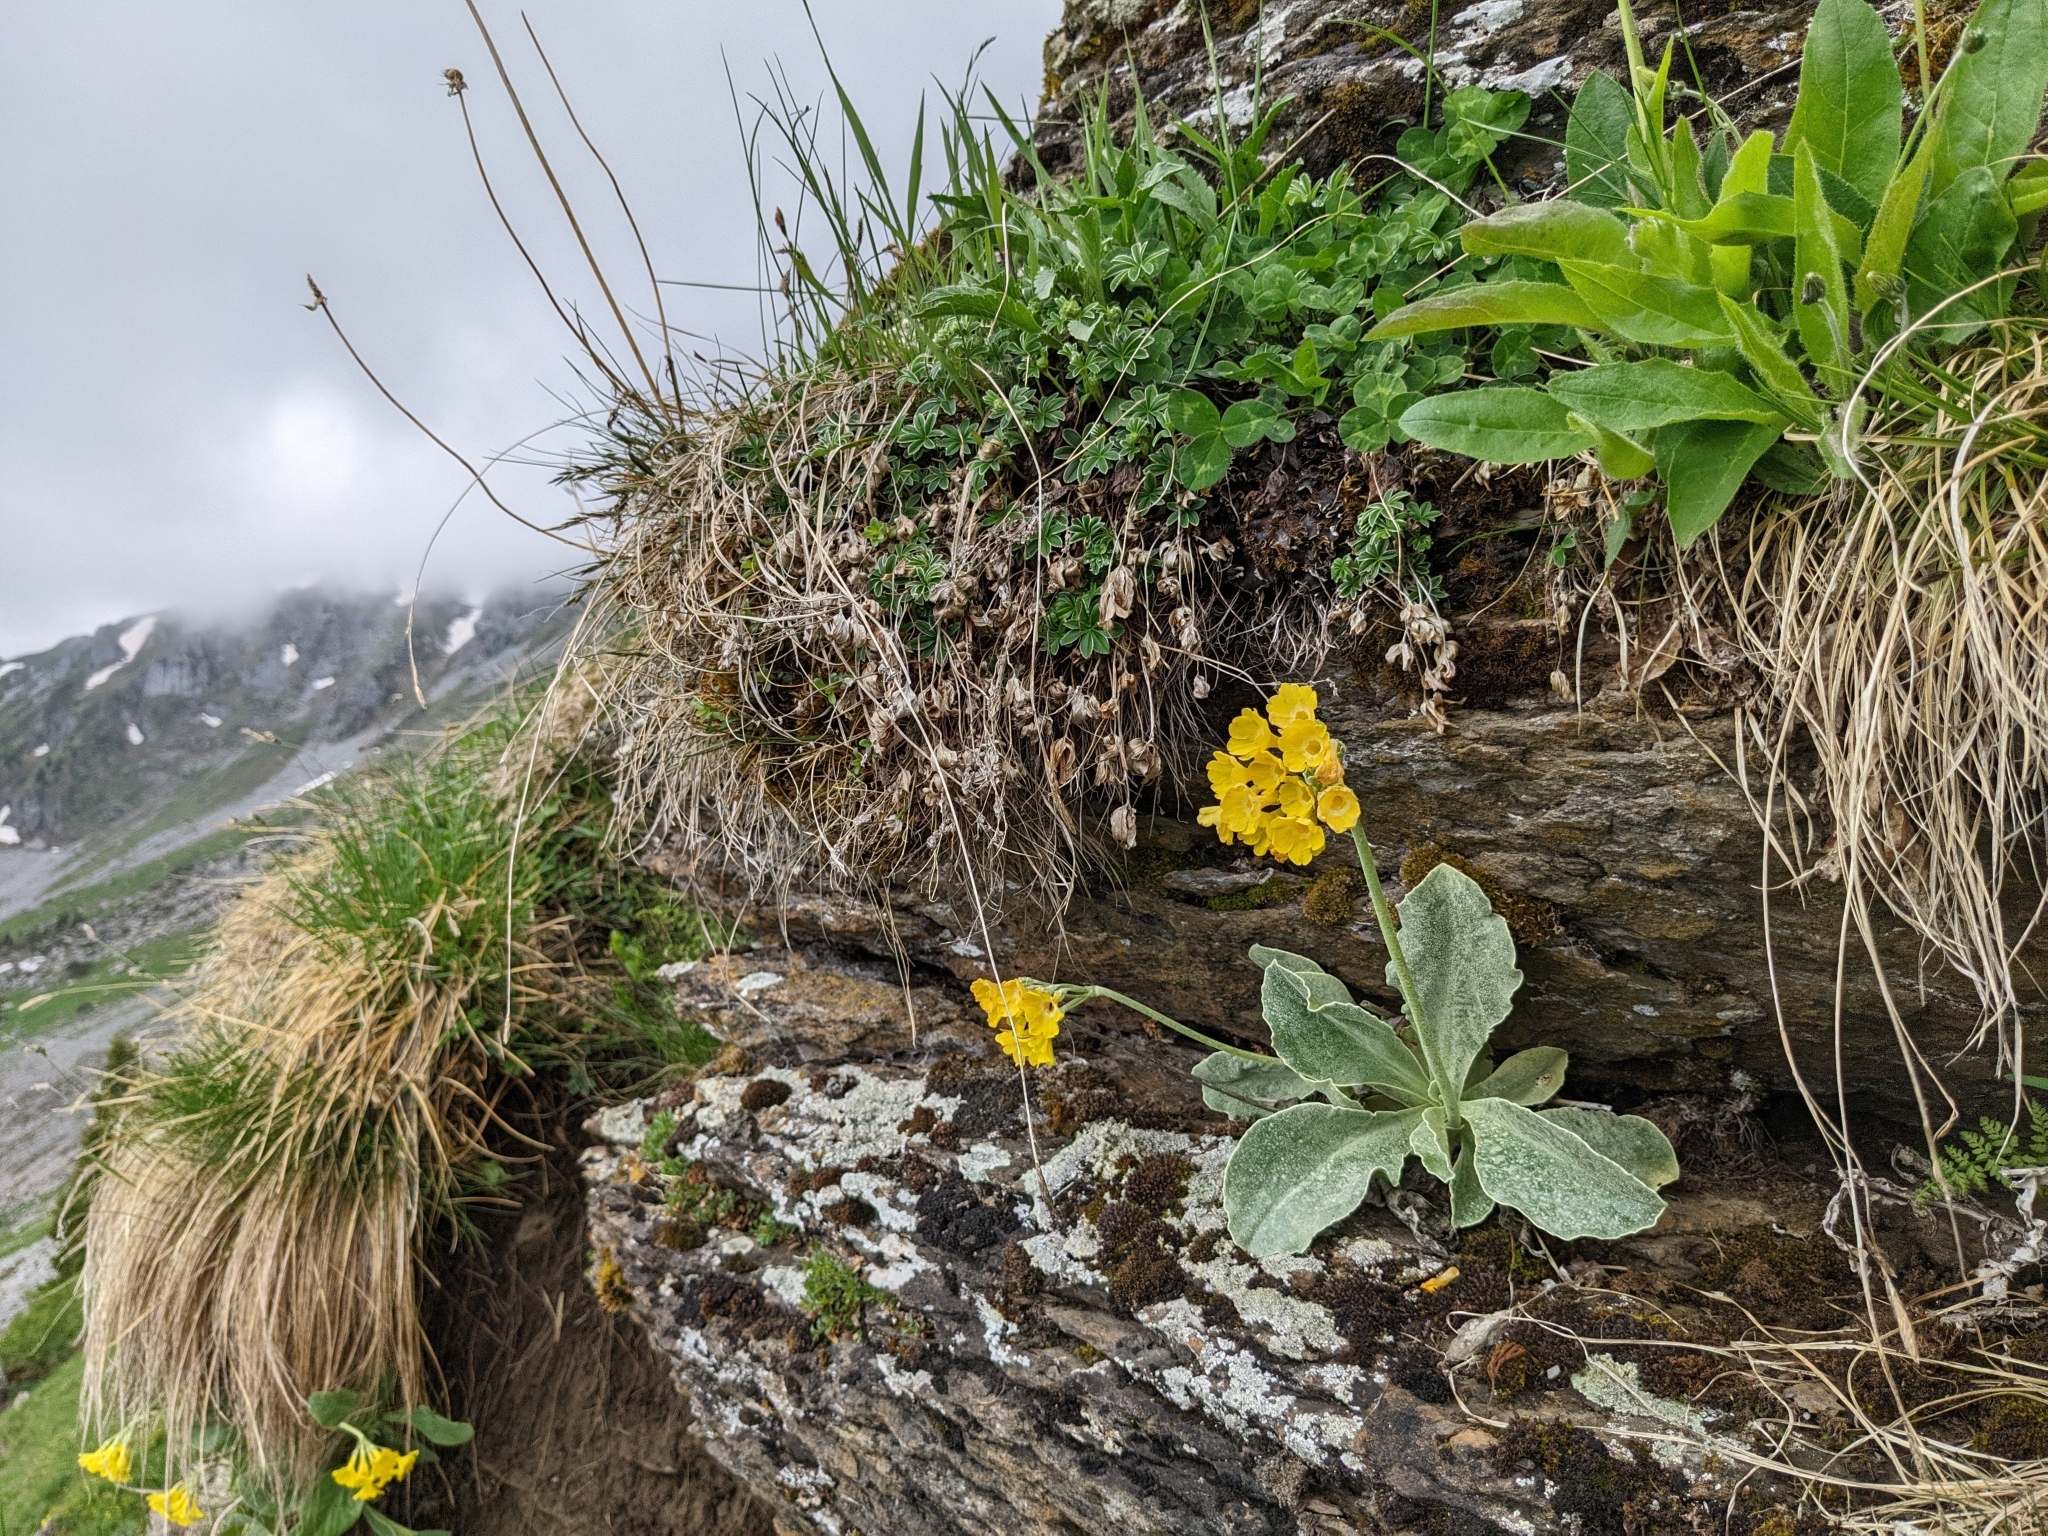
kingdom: Plantae
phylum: Tracheophyta
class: Magnoliopsida
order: Ericales
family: Primulaceae
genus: Primula
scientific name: Primula auricula
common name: Auricula
